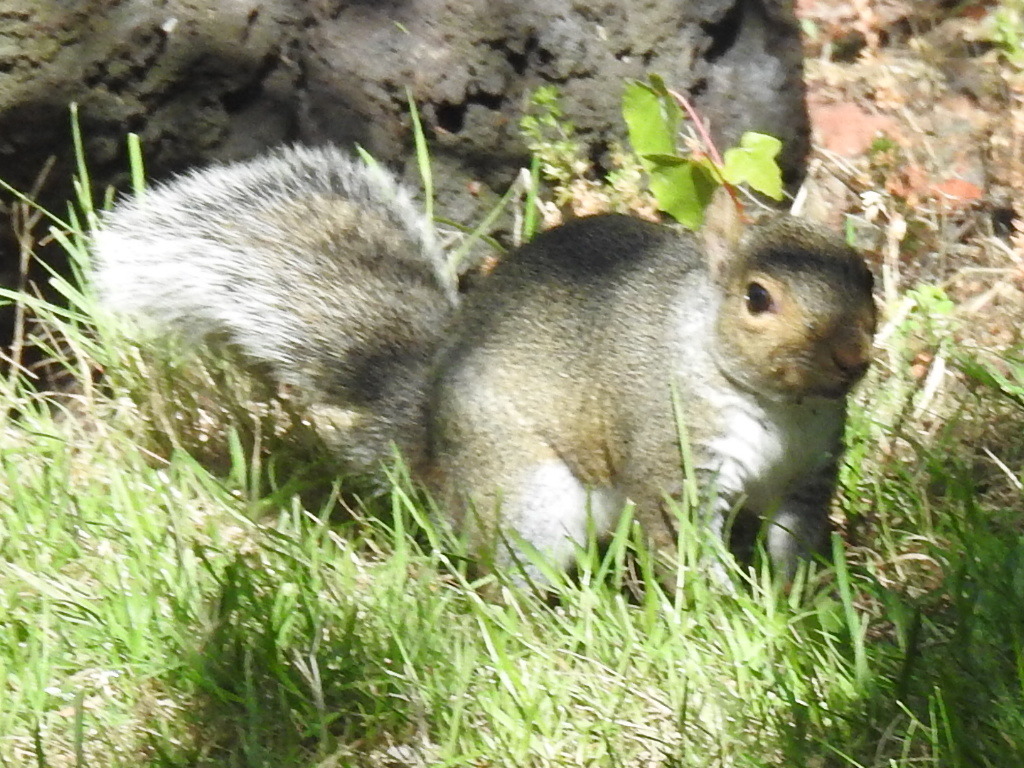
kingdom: Animalia
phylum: Chordata
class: Mammalia
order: Rodentia
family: Sciuridae
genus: Sciurus
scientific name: Sciurus carolinensis
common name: Eastern gray squirrel
